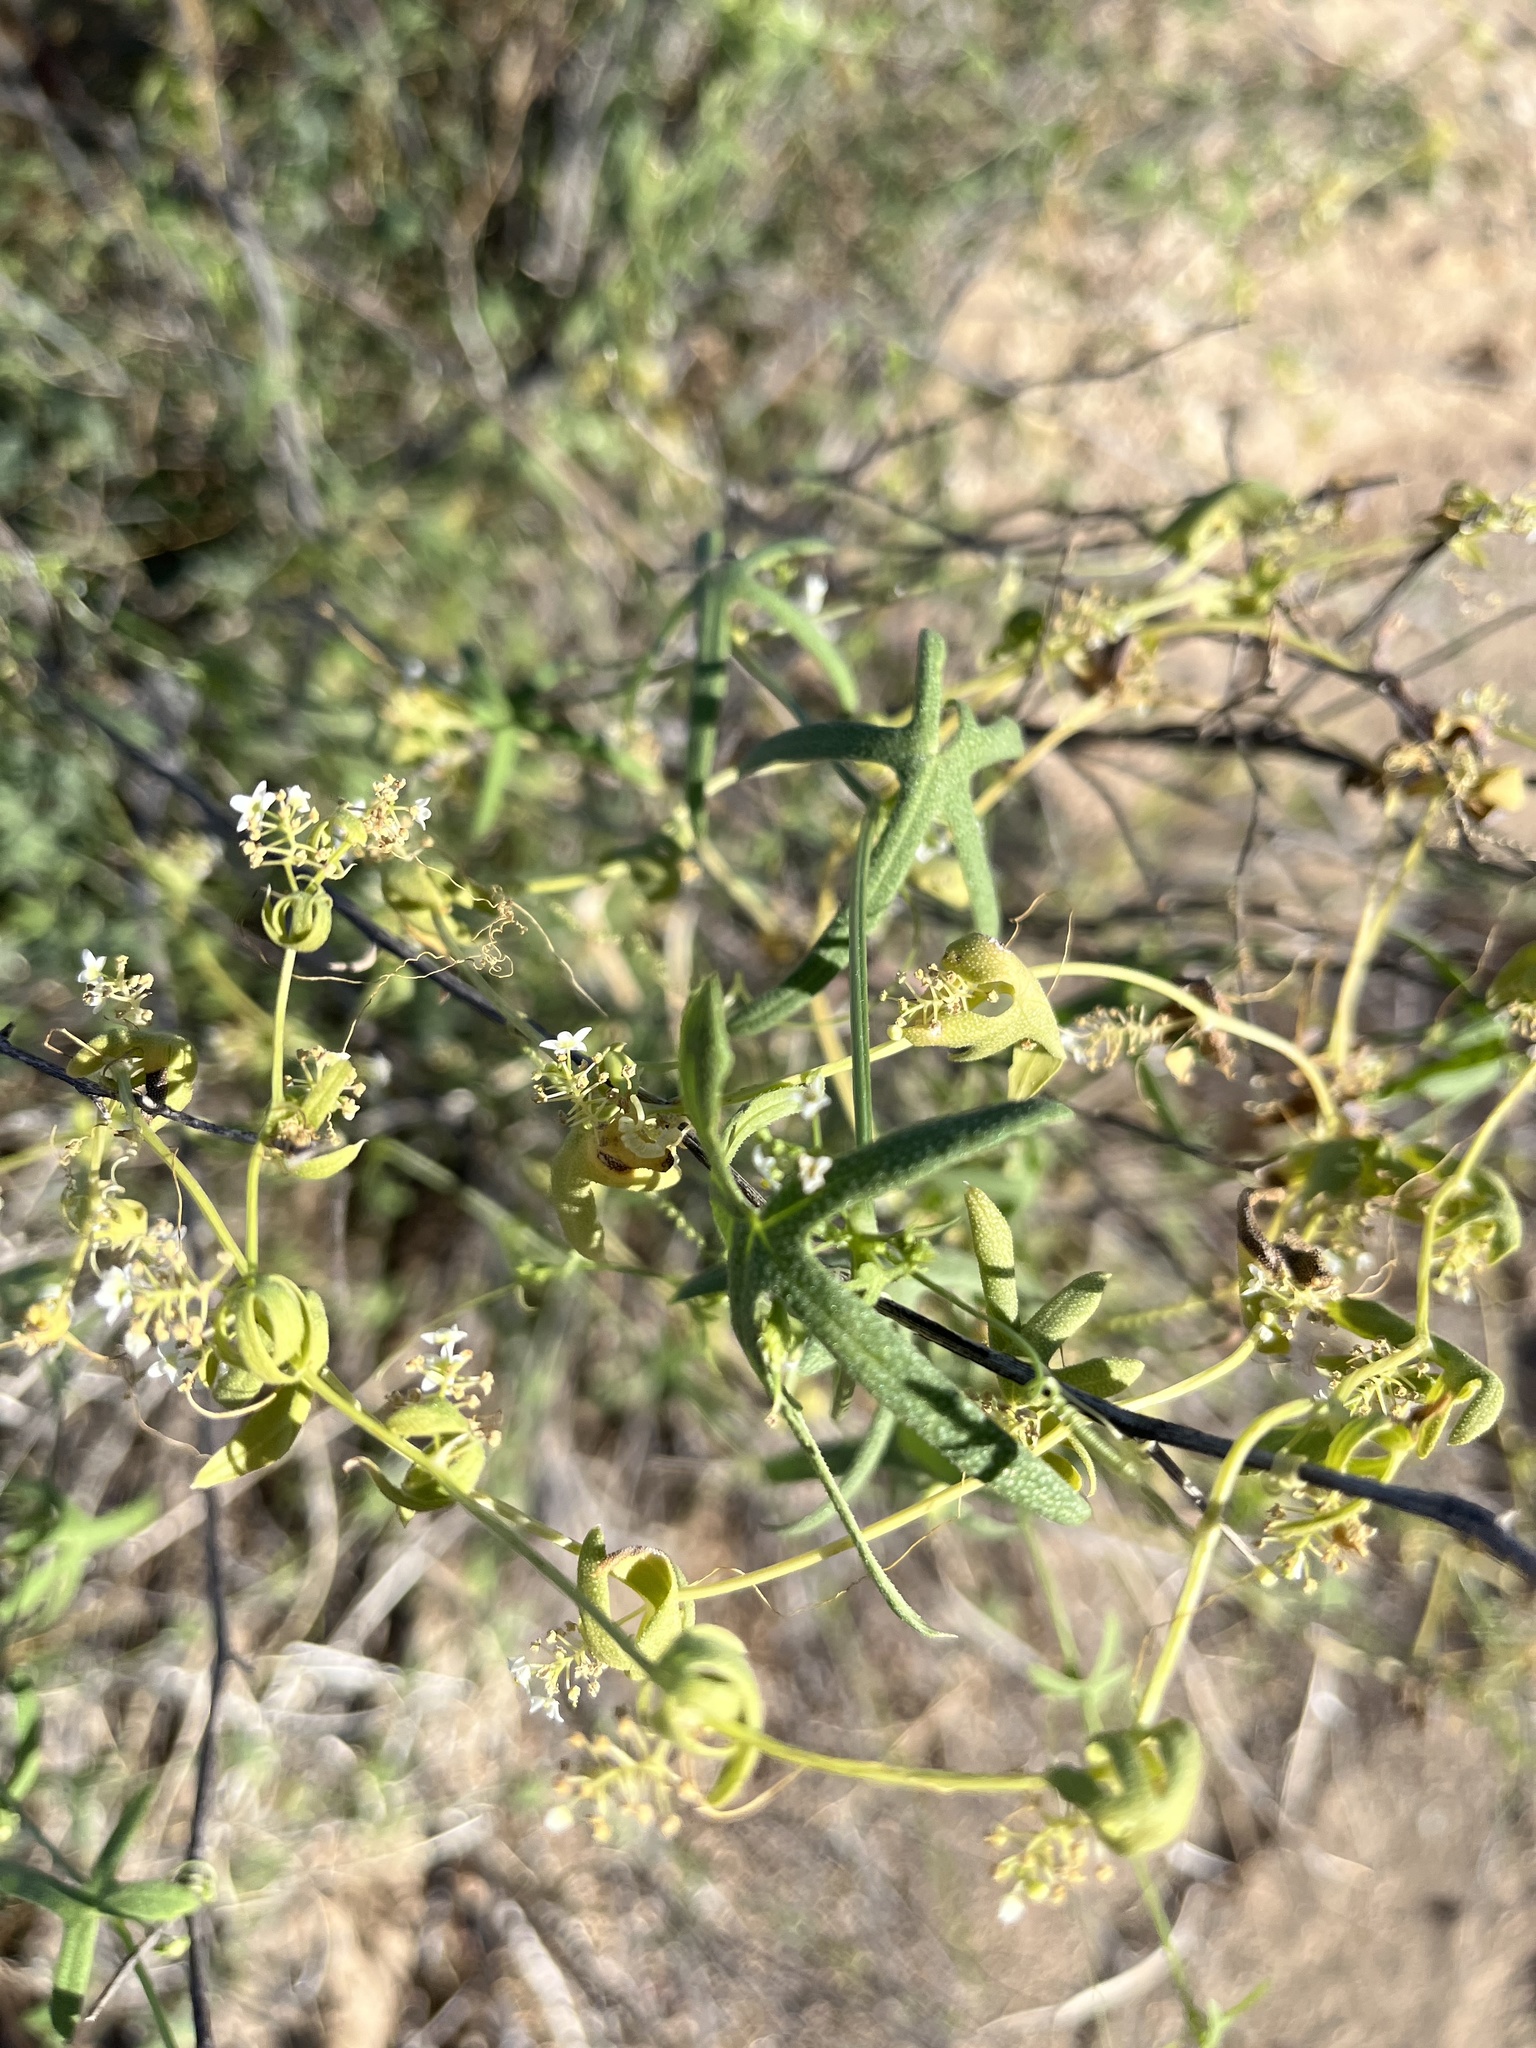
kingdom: Plantae
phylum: Tracheophyta
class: Magnoliopsida
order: Cucurbitales
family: Cucurbitaceae
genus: Echinopepon
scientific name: Echinopepon bigelovii
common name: Desert starvine
